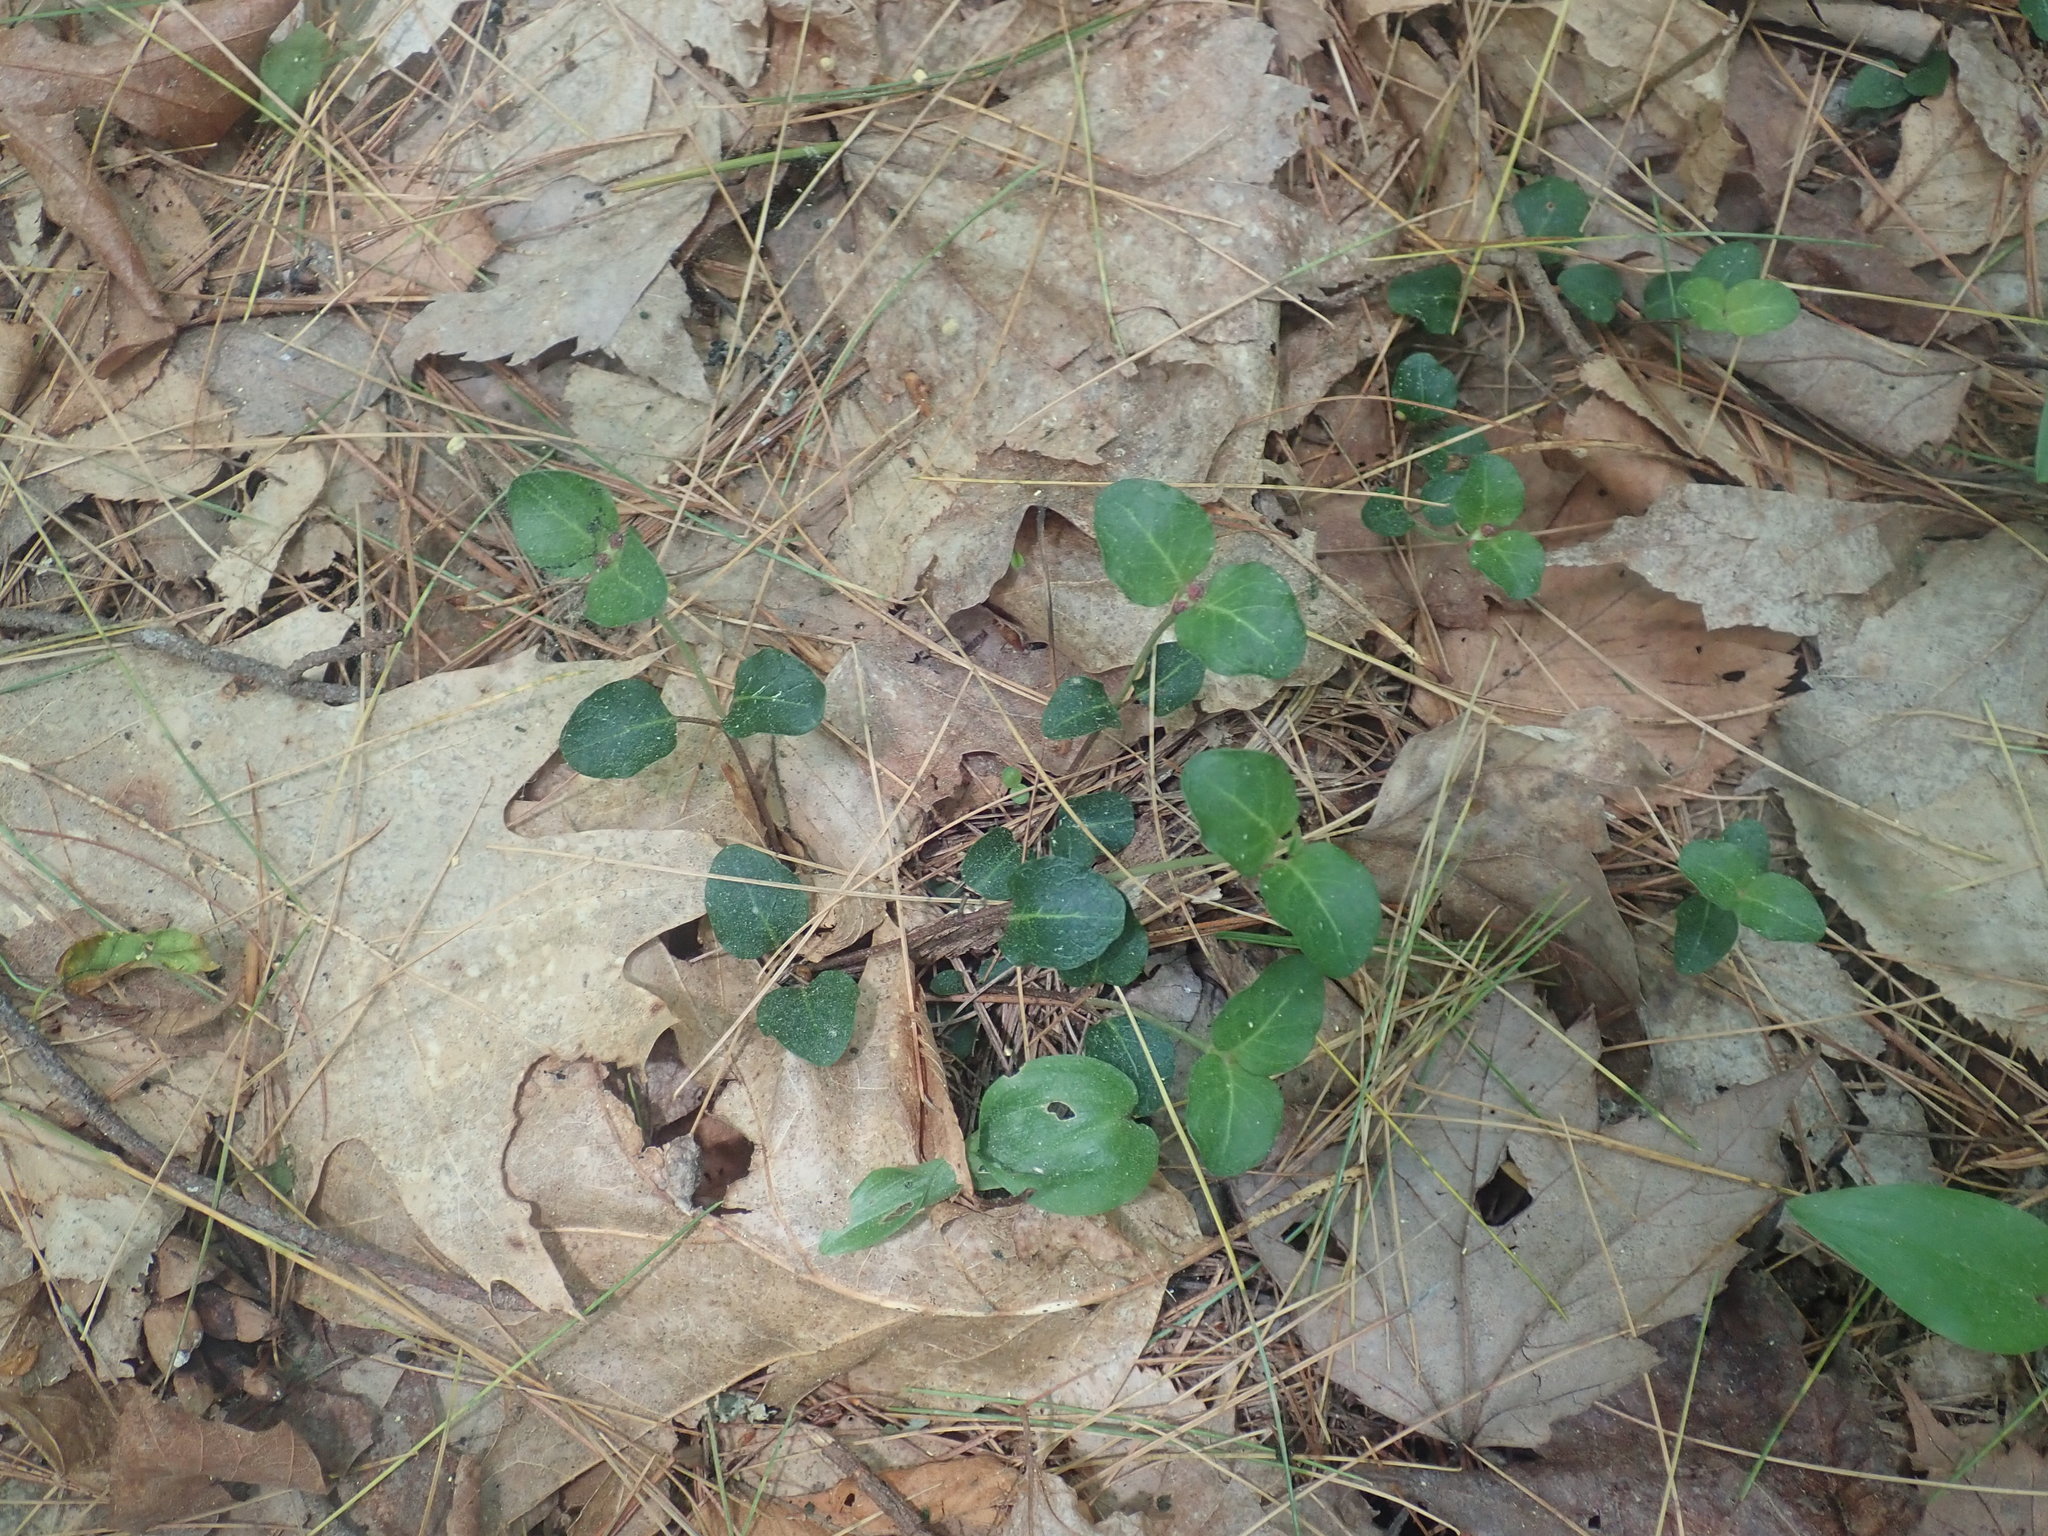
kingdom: Plantae
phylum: Tracheophyta
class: Magnoliopsida
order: Gentianales
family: Rubiaceae
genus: Mitchella
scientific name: Mitchella repens
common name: Partridge-berry
